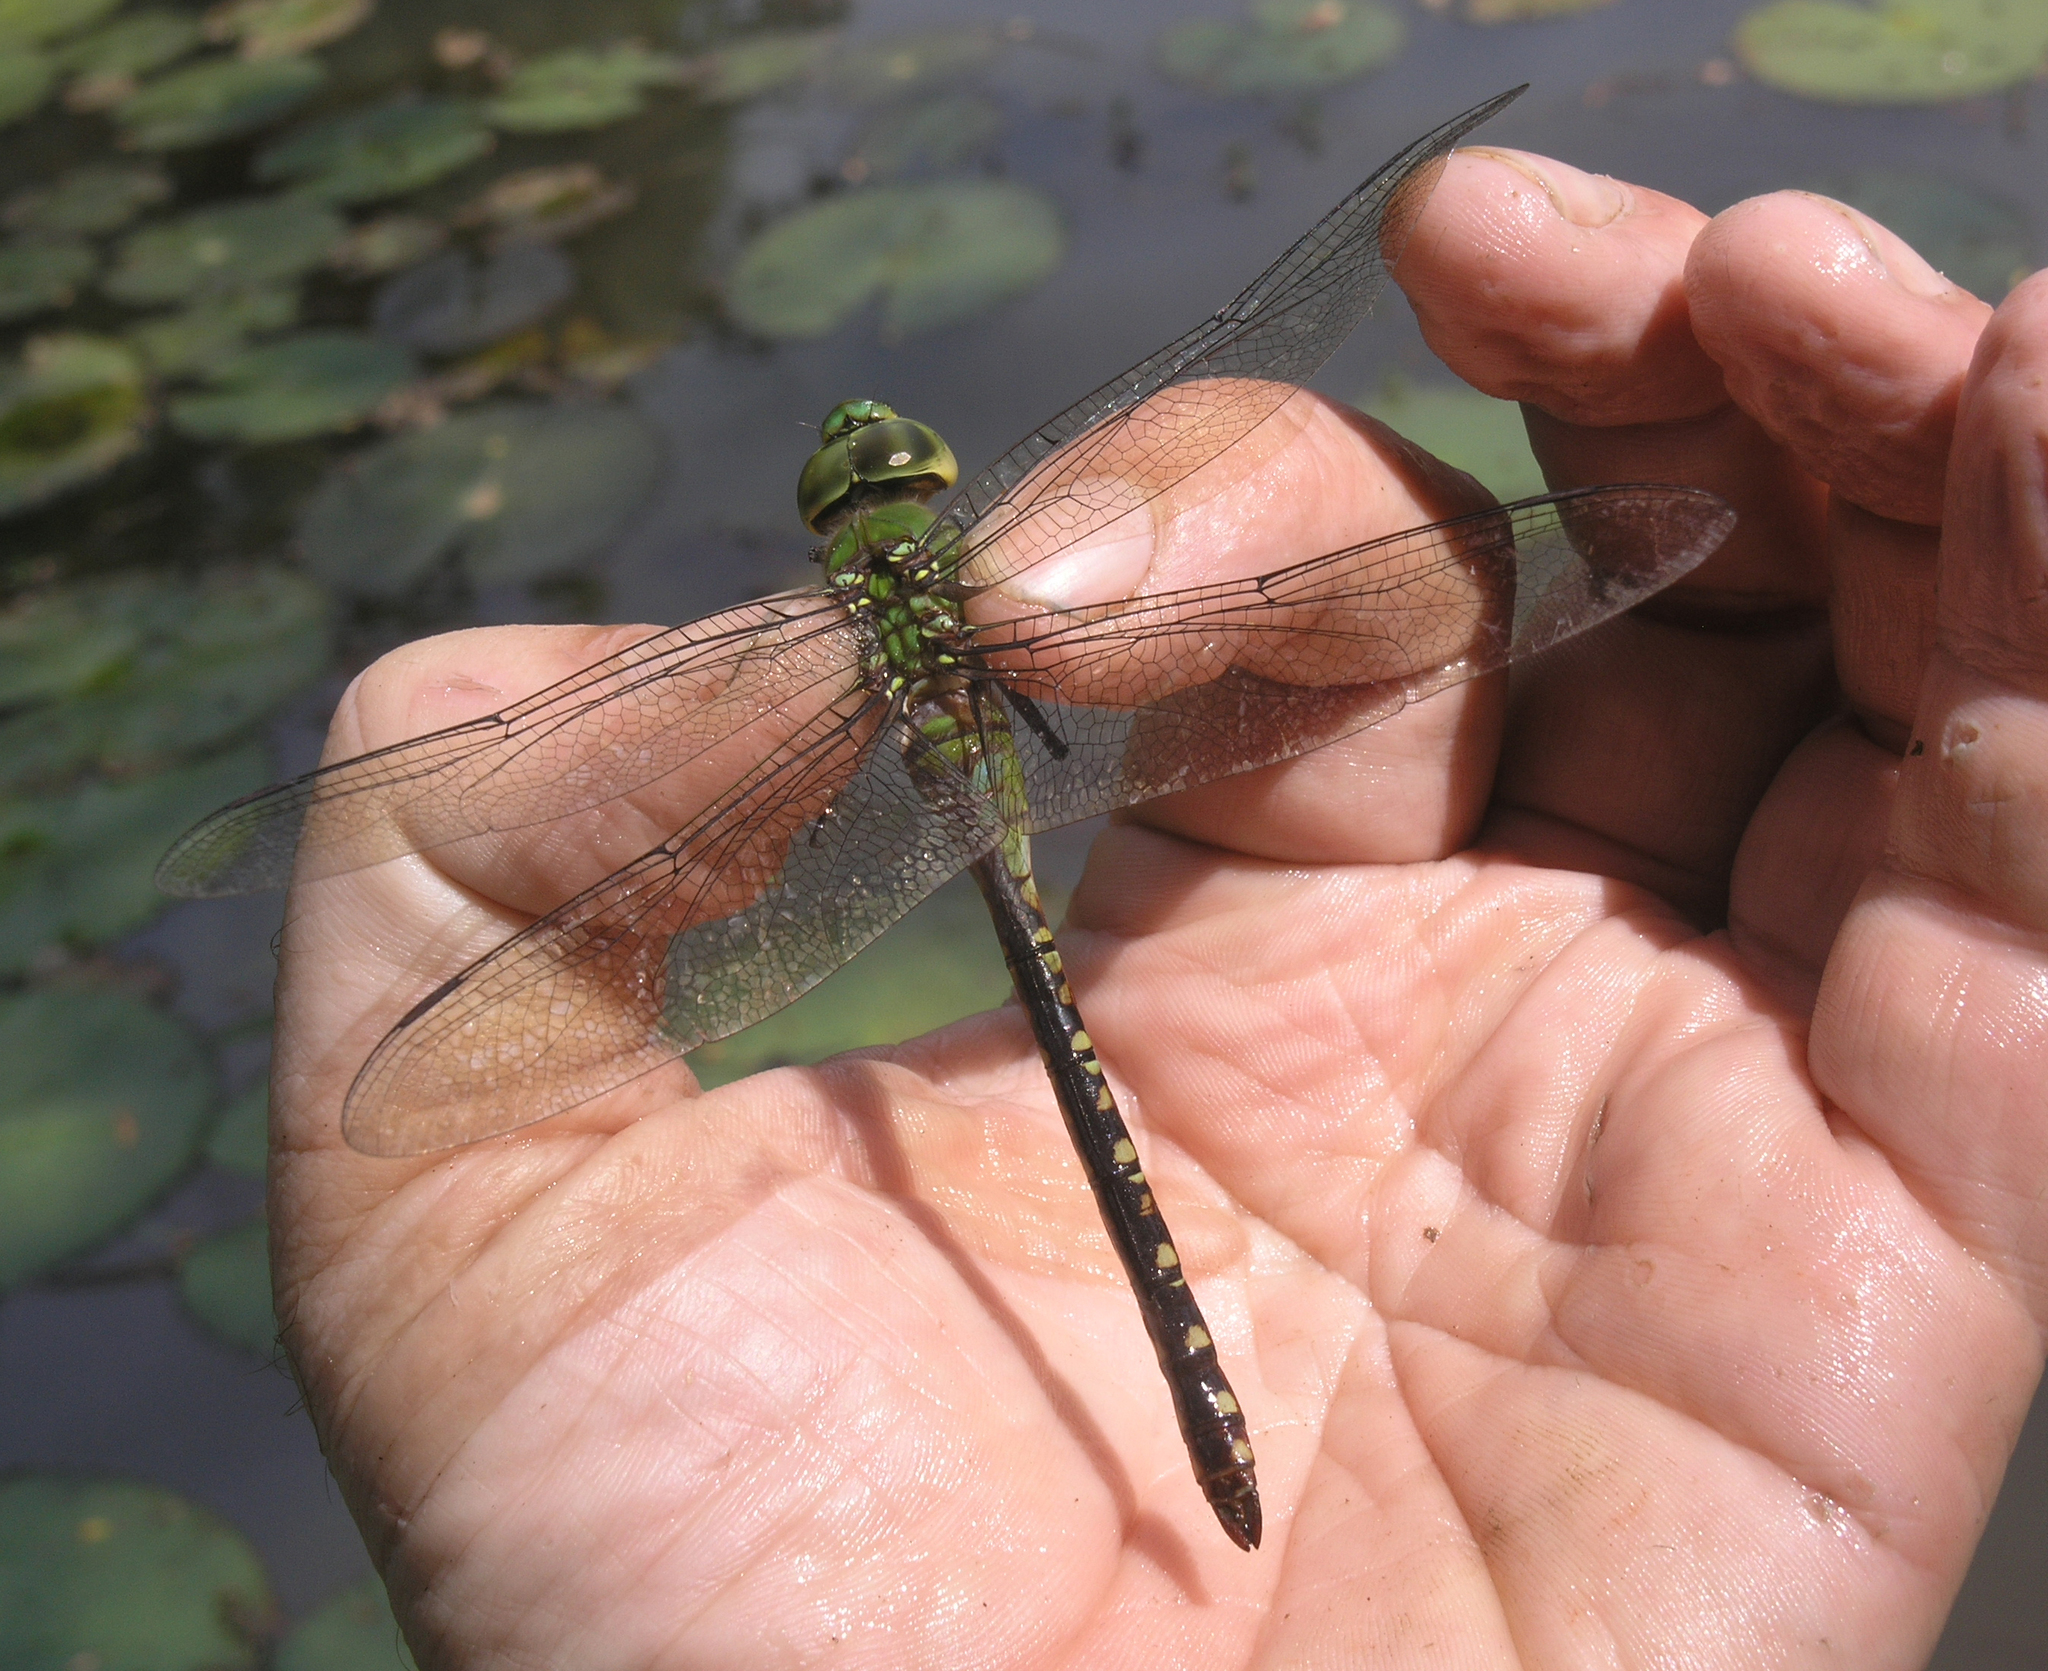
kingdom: Animalia
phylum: Arthropoda
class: Insecta
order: Odonata
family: Aeshnidae
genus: Anax
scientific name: Anax guttatus
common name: Emperor
